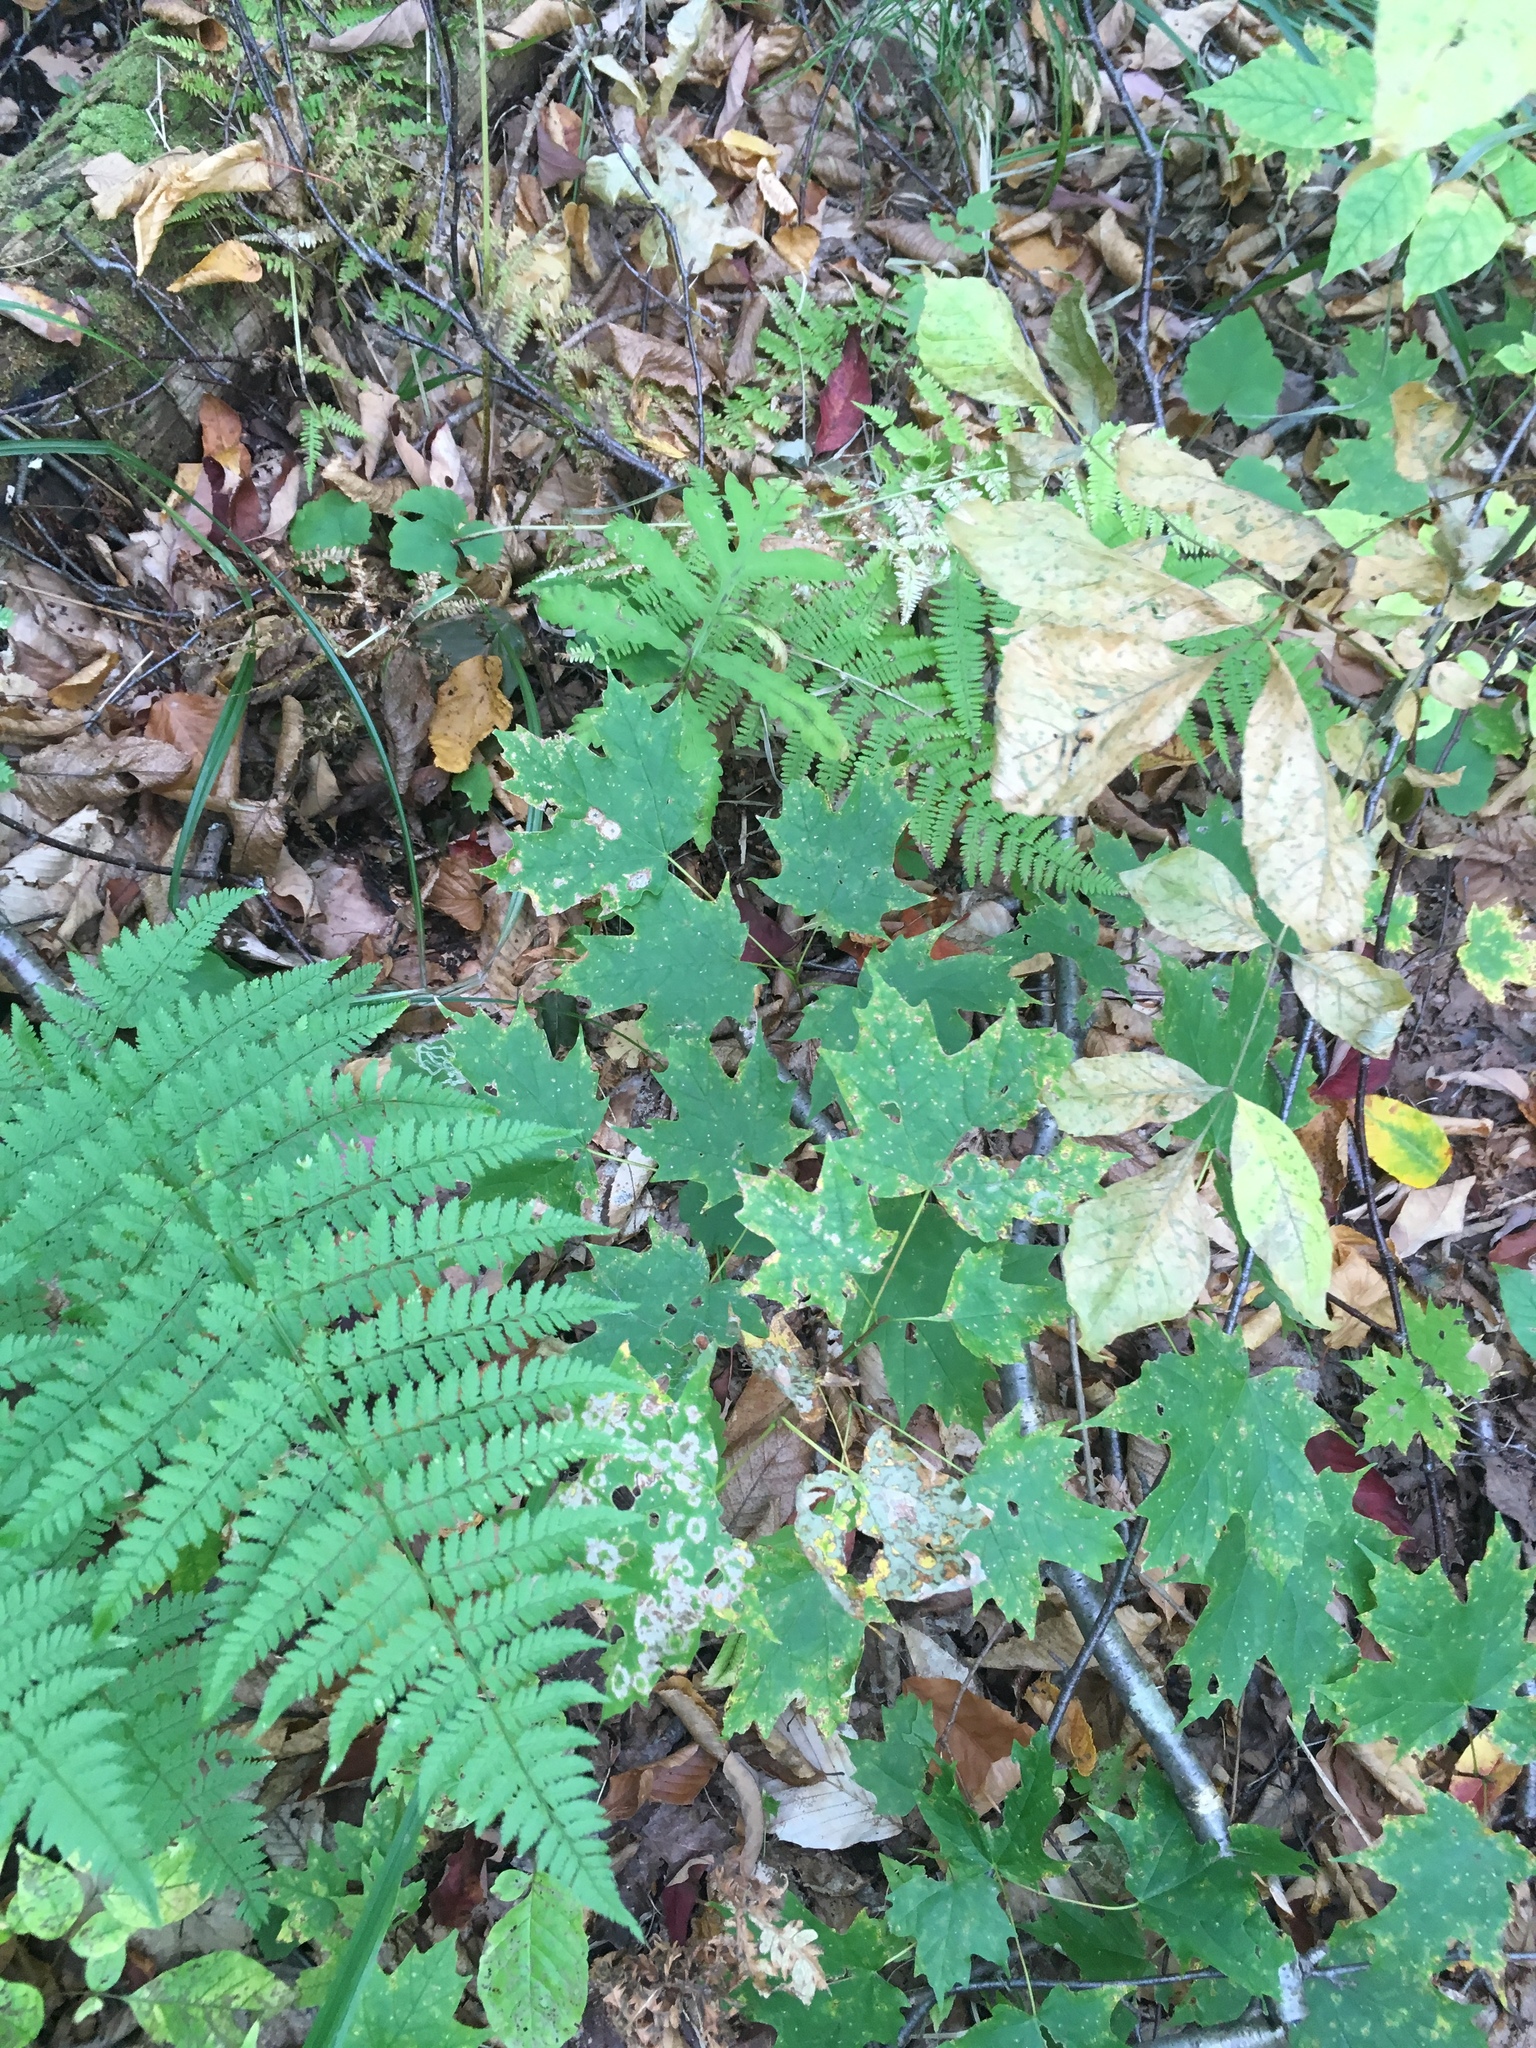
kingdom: Plantae
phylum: Tracheophyta
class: Magnoliopsida
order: Sapindales
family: Sapindaceae
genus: Acer
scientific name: Acer saccharum
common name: Sugar maple
